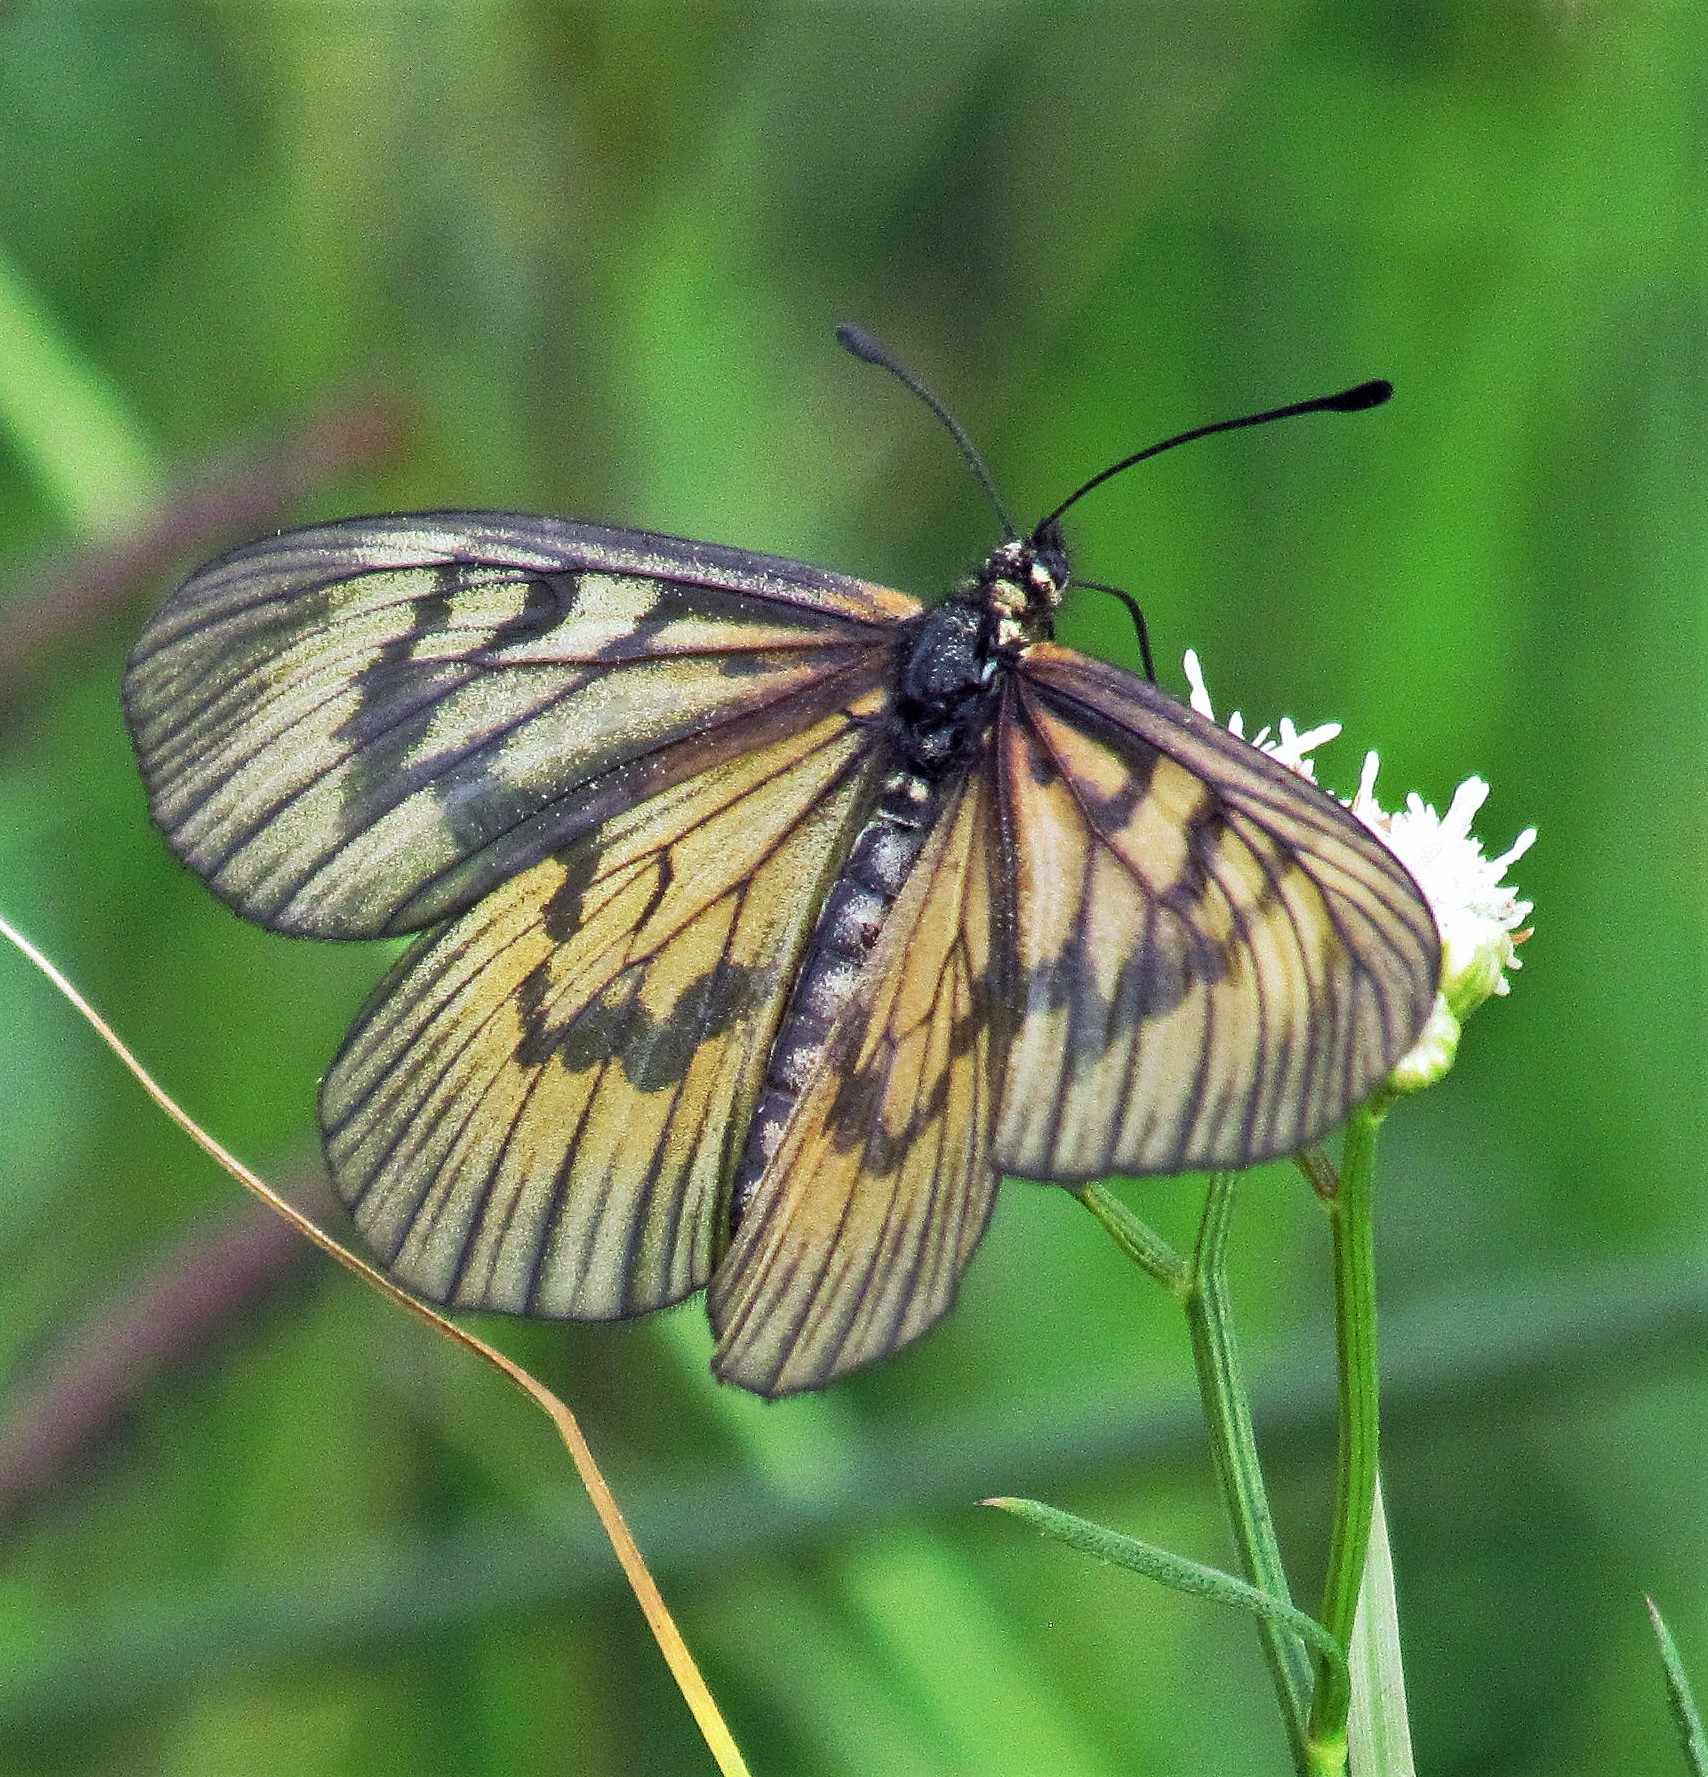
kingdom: Animalia
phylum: Arthropoda
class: Insecta
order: Lepidoptera
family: Nymphalidae
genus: Acraea
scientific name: Acraea momina
